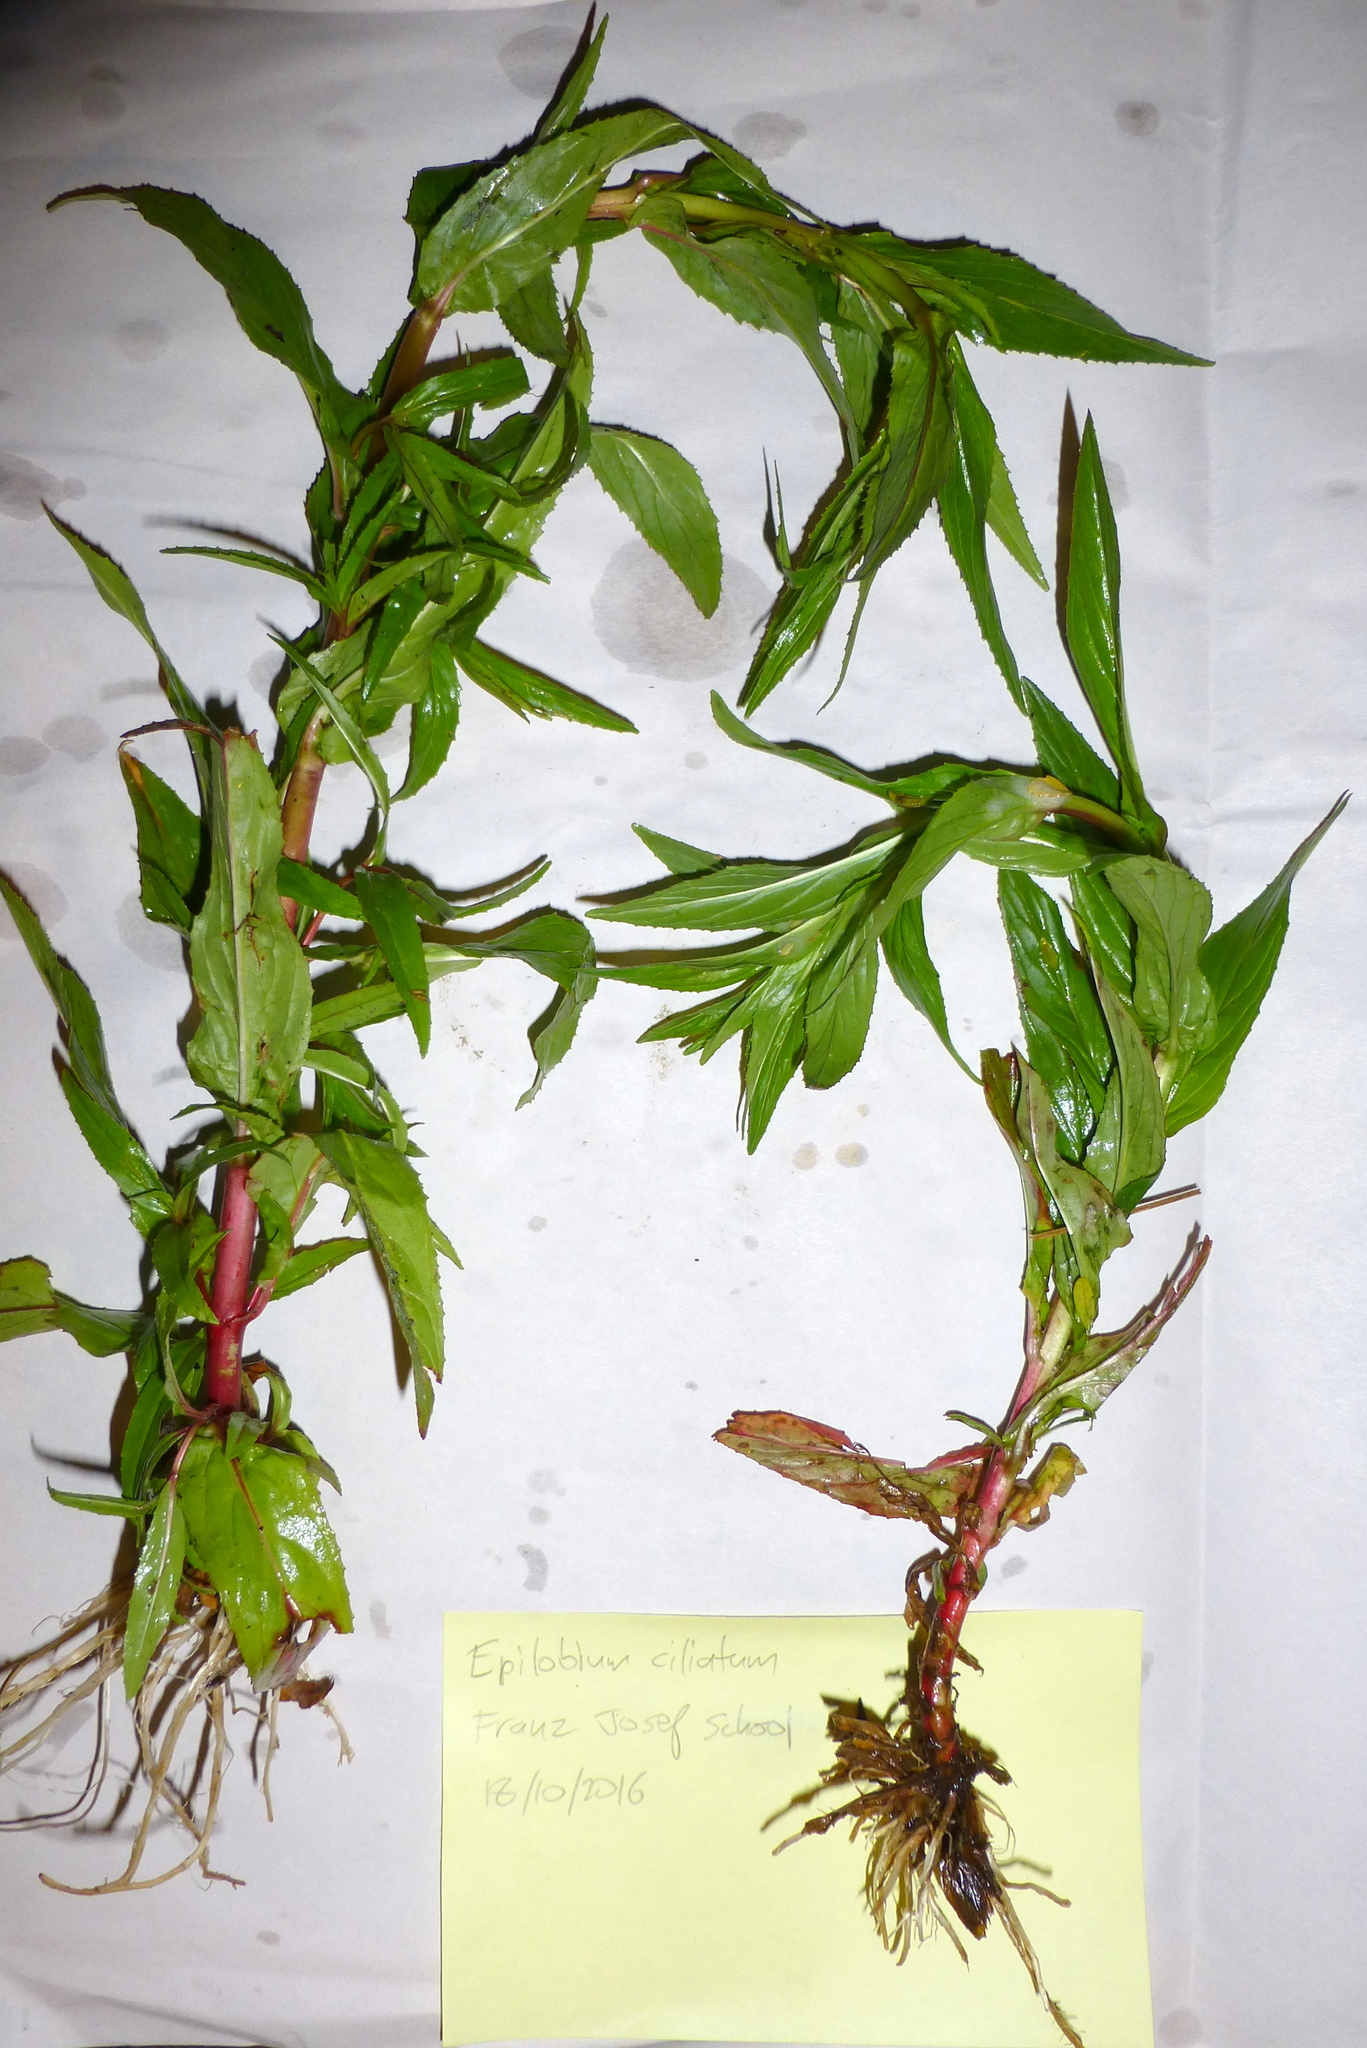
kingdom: Plantae
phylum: Tracheophyta
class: Magnoliopsida
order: Myrtales
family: Onagraceae
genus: Epilobium
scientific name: Epilobium ciliatum
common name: American willowherb
